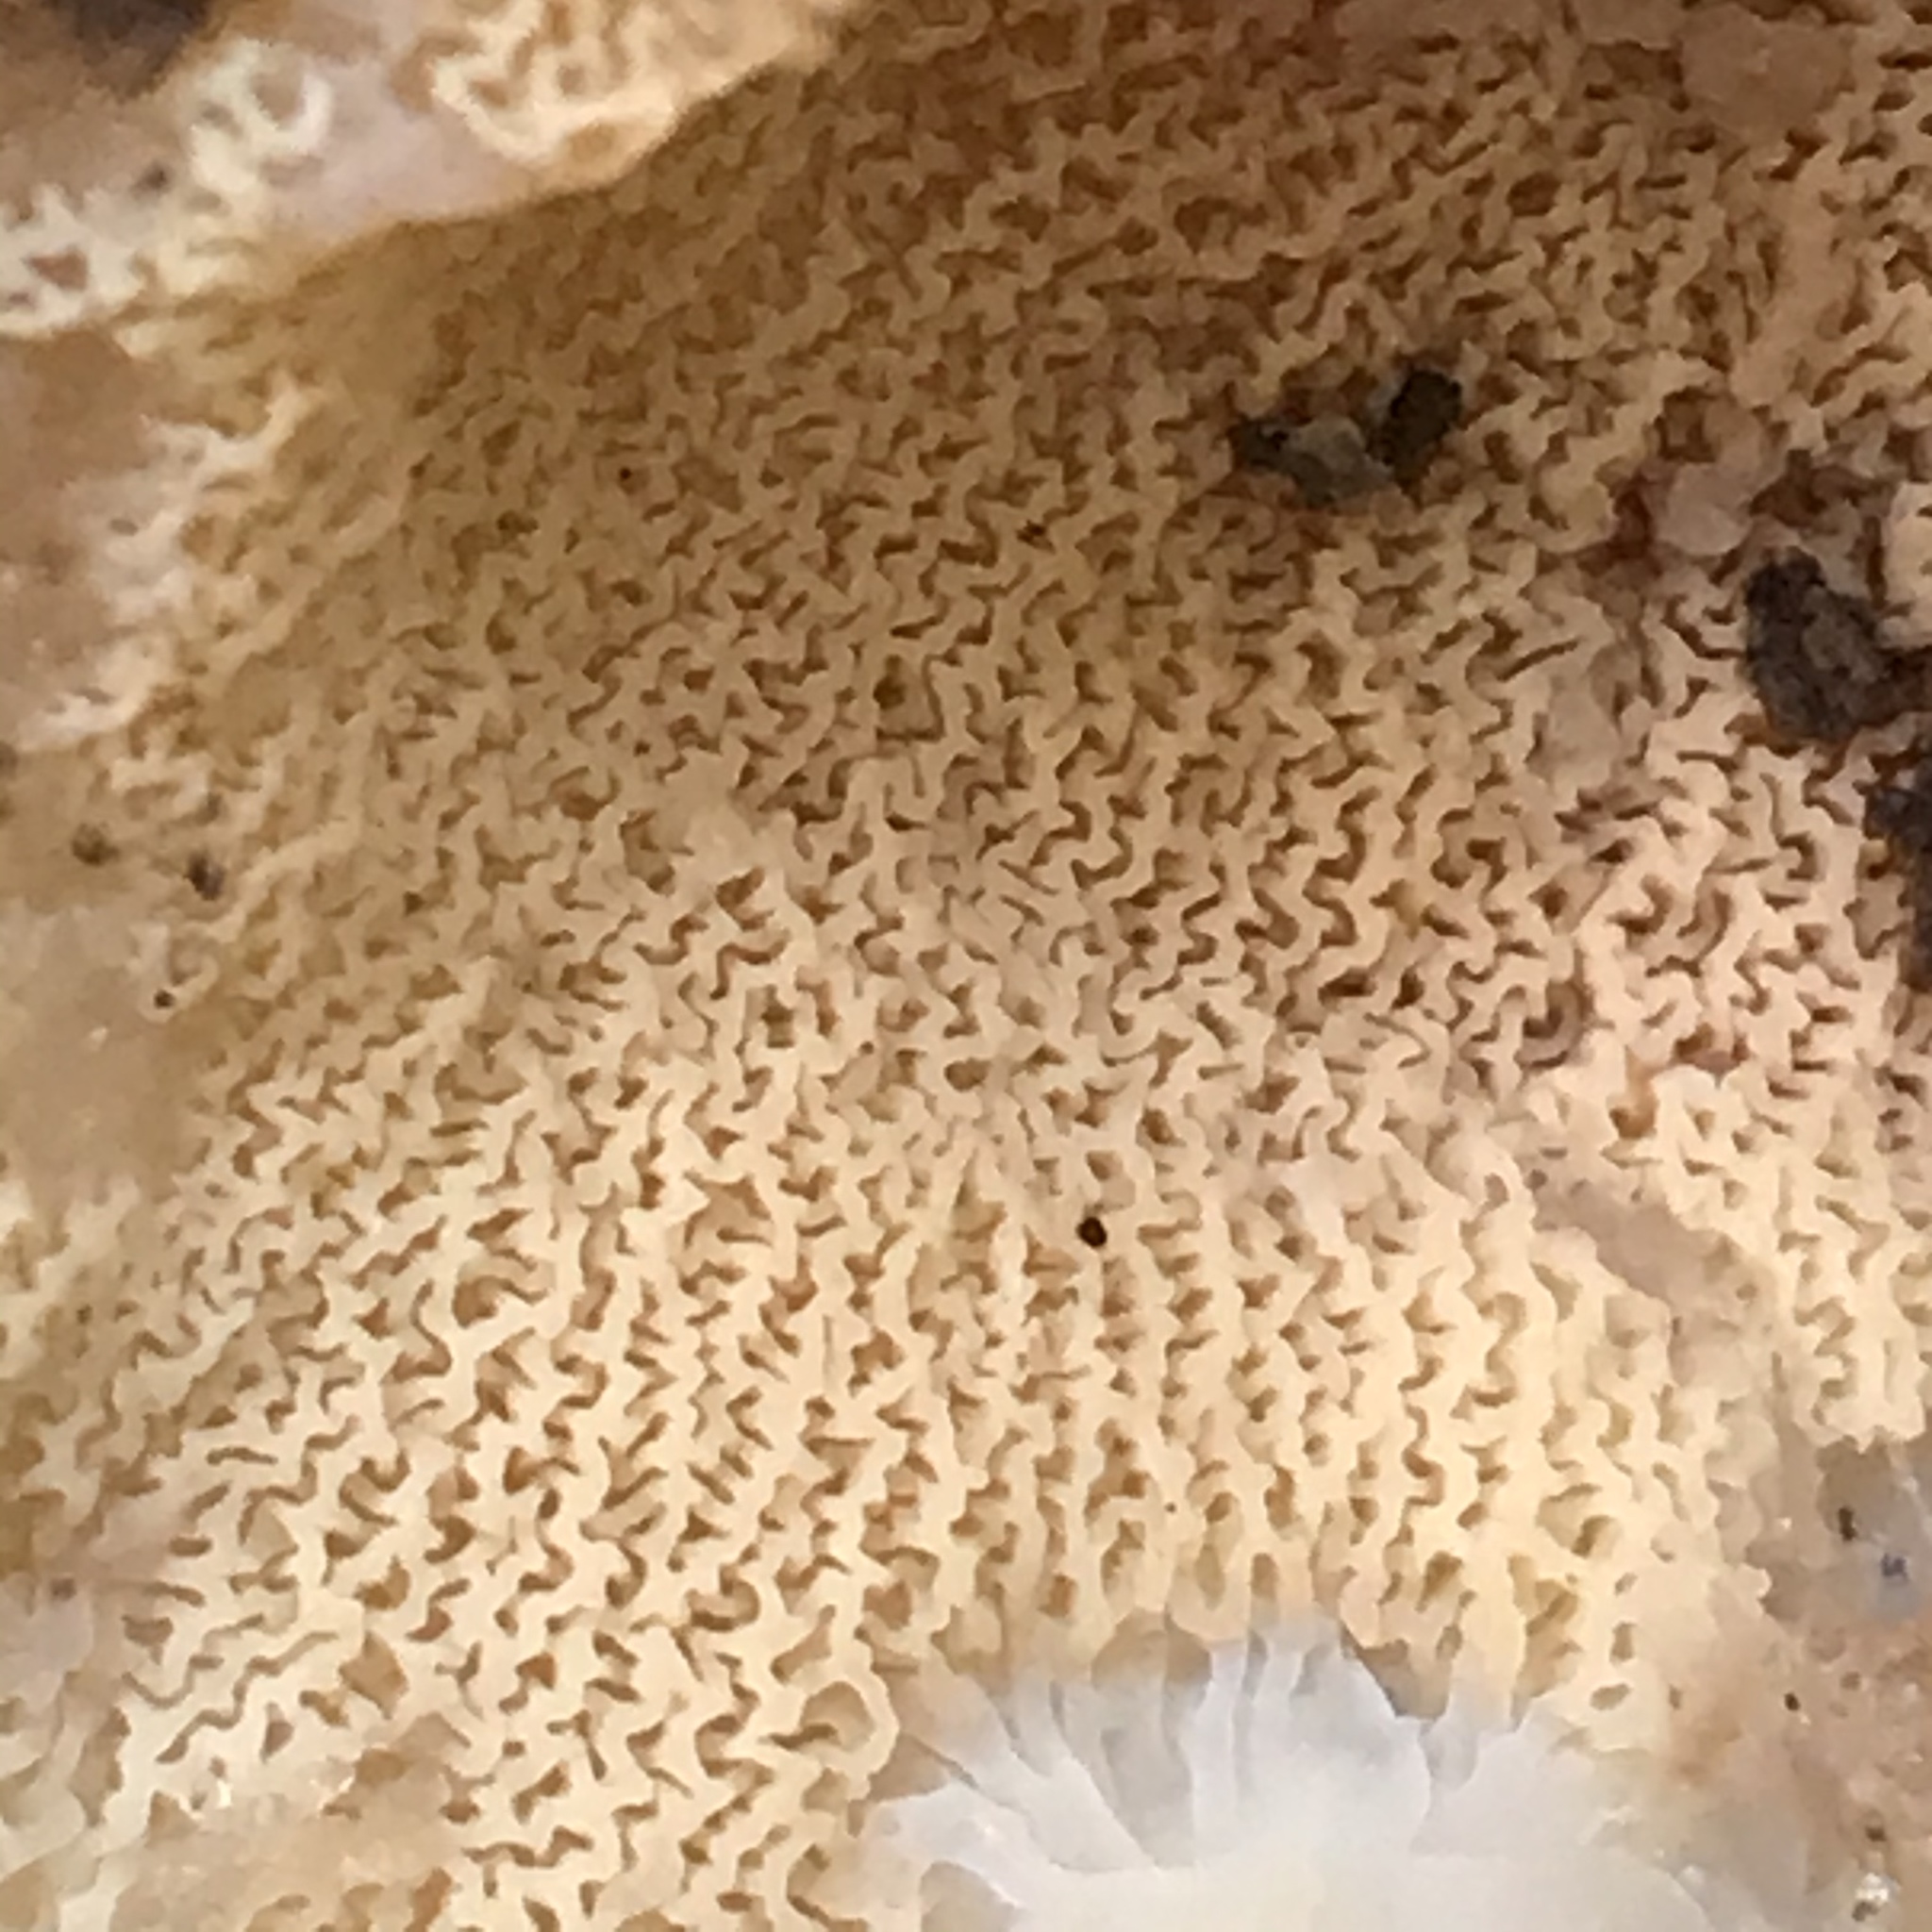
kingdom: Fungi
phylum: Basidiomycota
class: Agaricomycetes
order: Polyporales
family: Meruliaceae
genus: Phlebia
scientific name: Phlebia tremellosa
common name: Jelly rot
